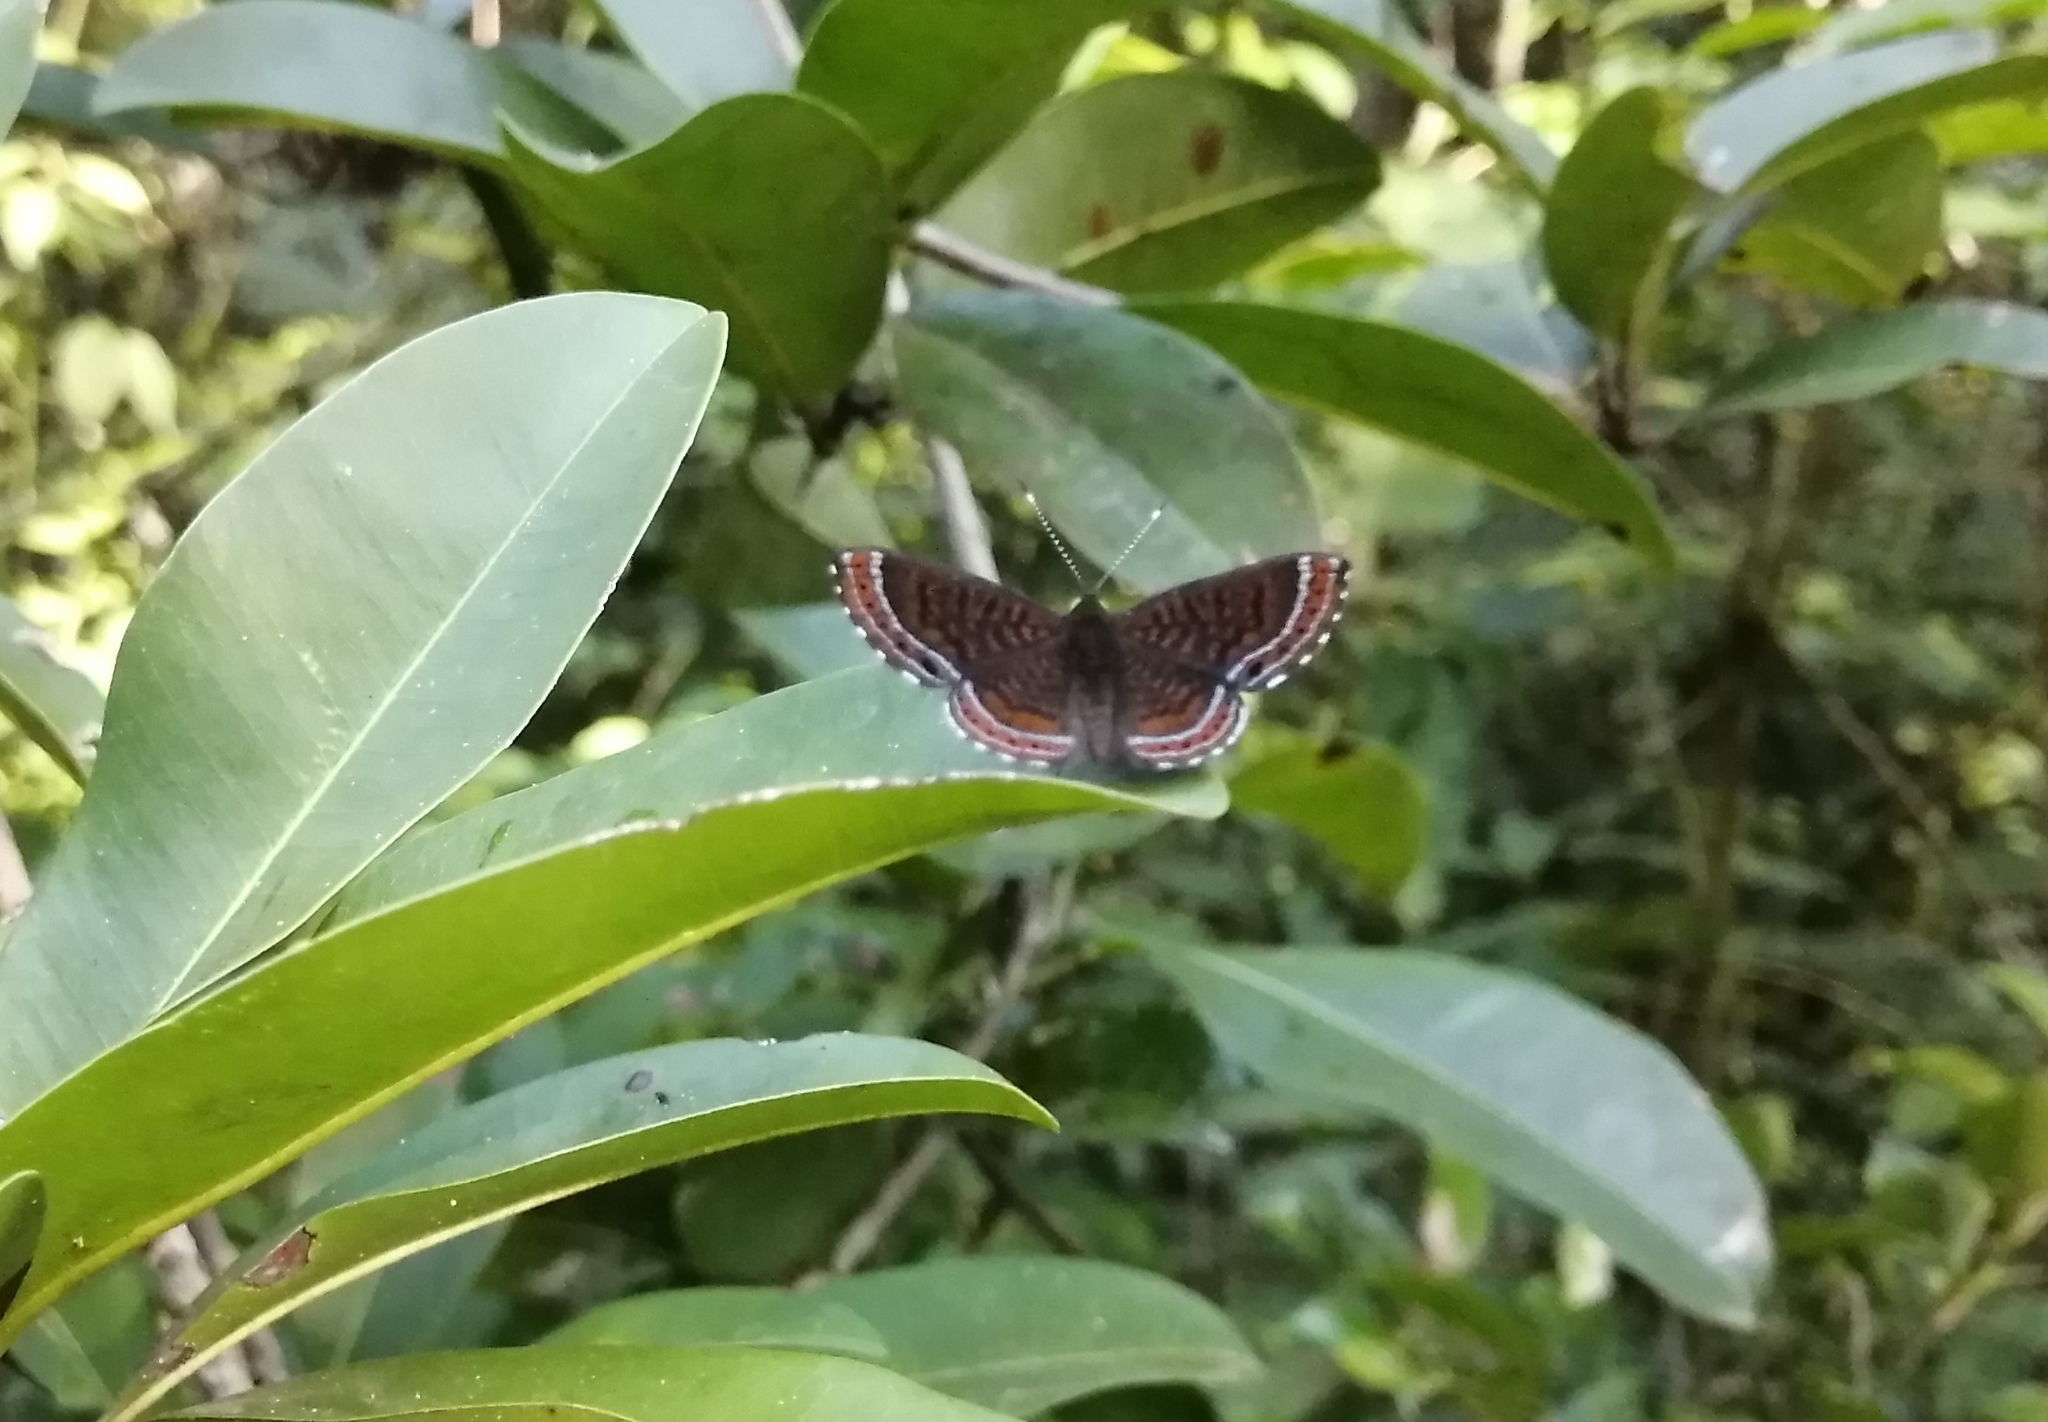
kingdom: Animalia
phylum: Arthropoda
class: Insecta
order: Lepidoptera
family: Riodinidae
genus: Detritivora
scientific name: Detritivora
